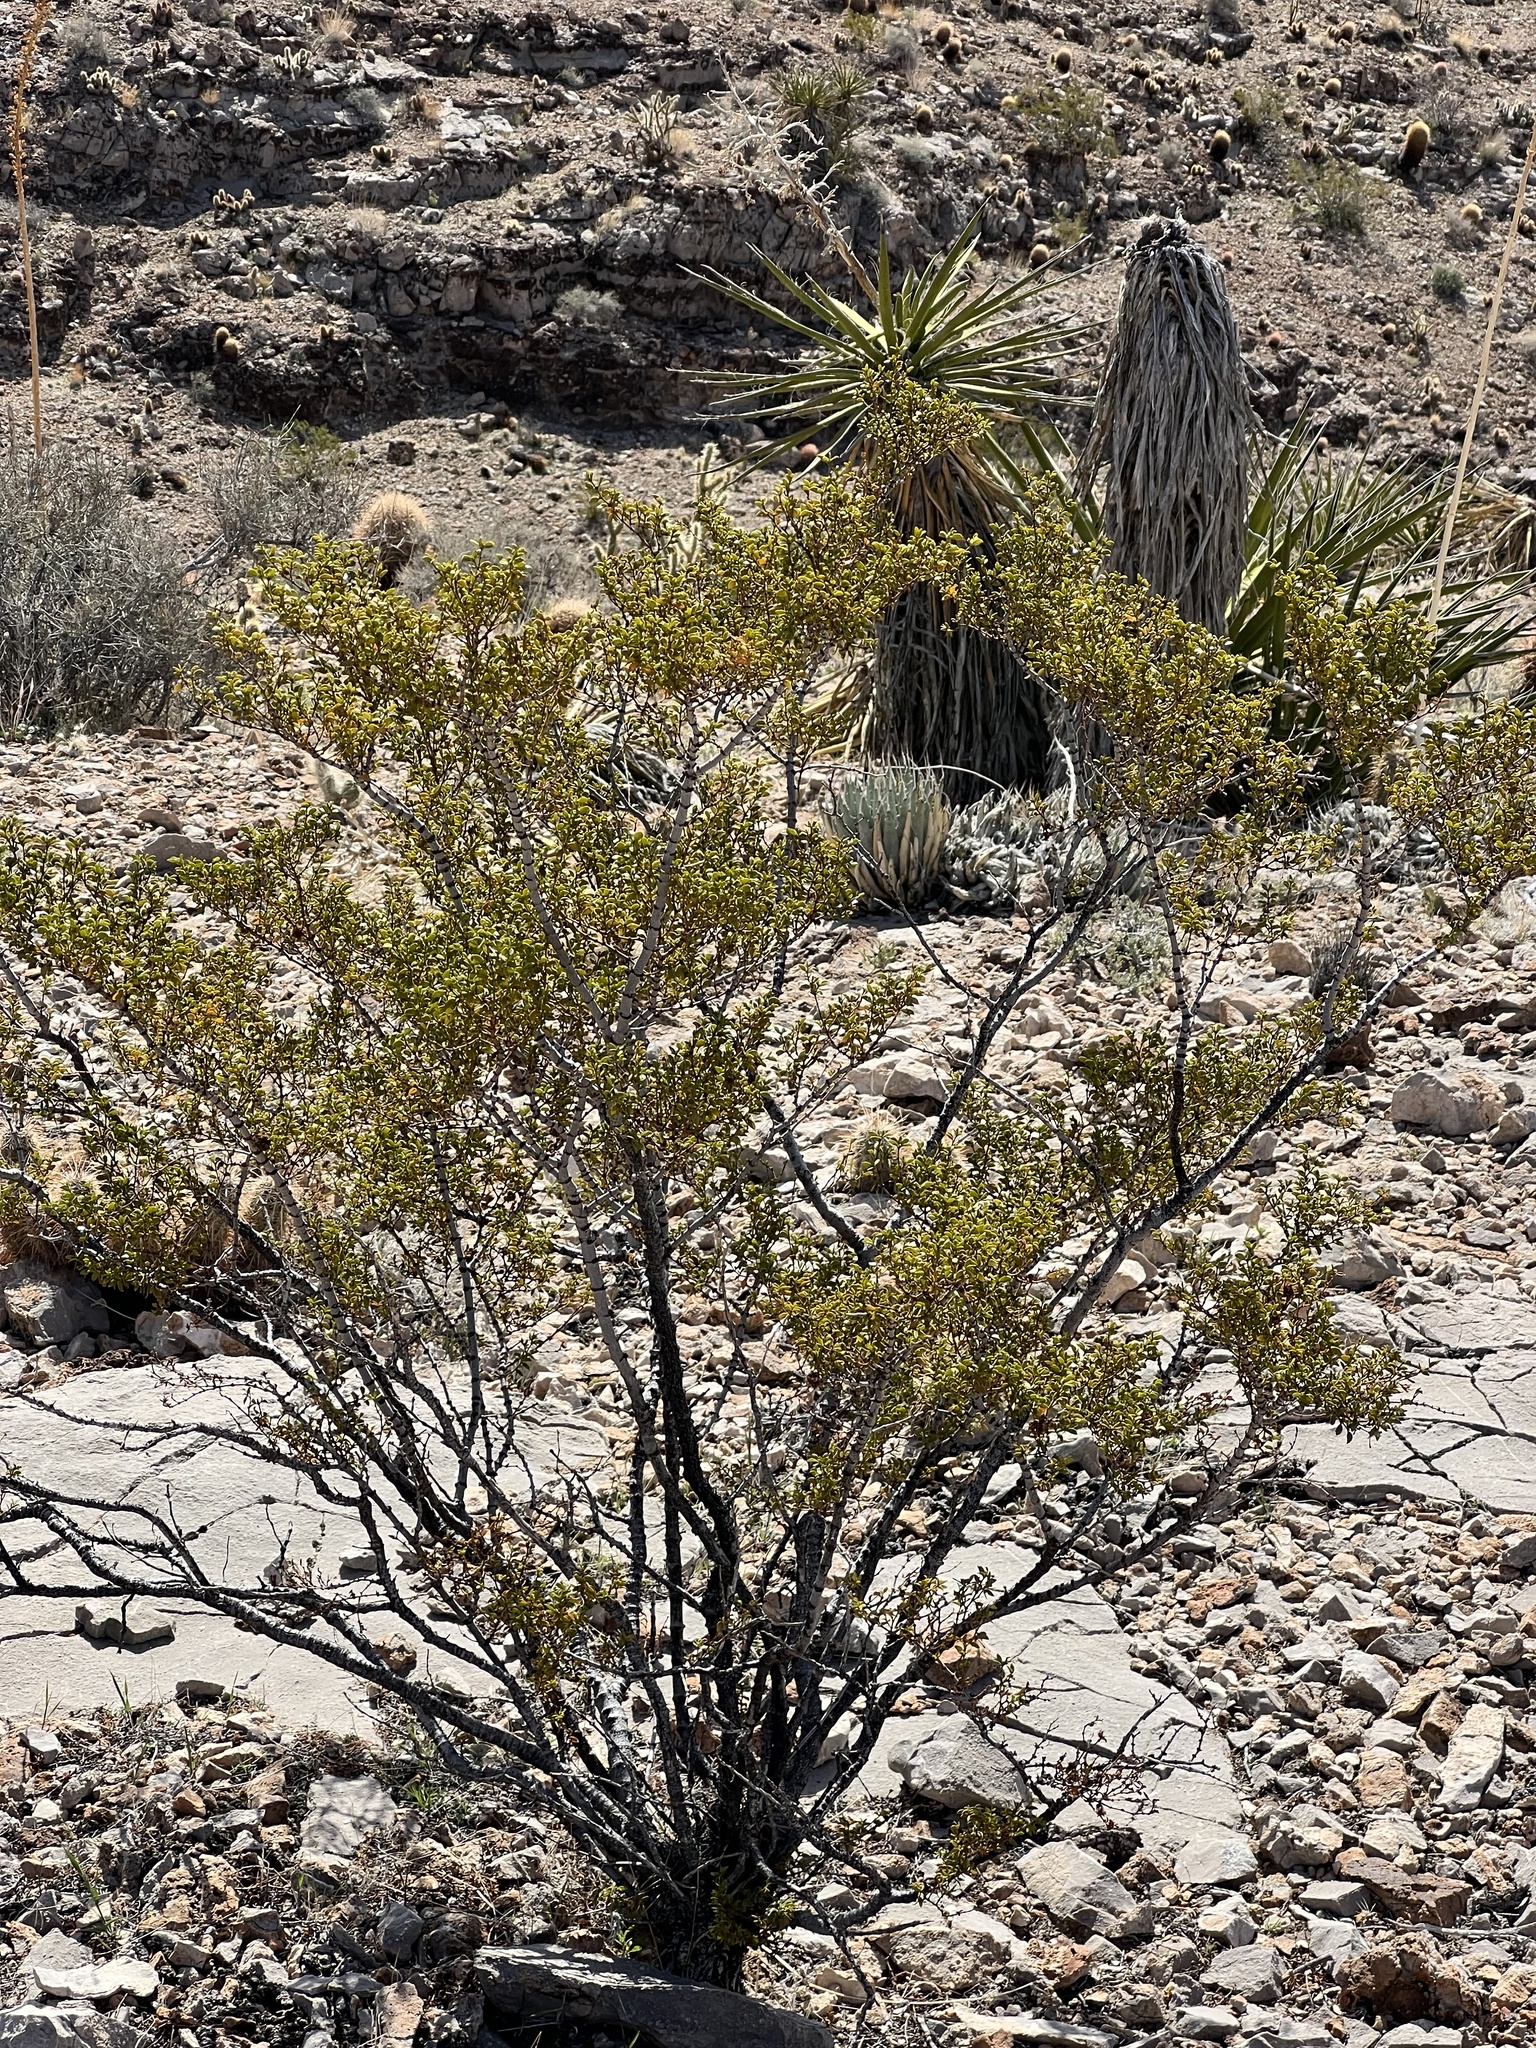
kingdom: Plantae
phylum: Tracheophyta
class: Magnoliopsida
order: Zygophyllales
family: Zygophyllaceae
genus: Larrea
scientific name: Larrea tridentata
